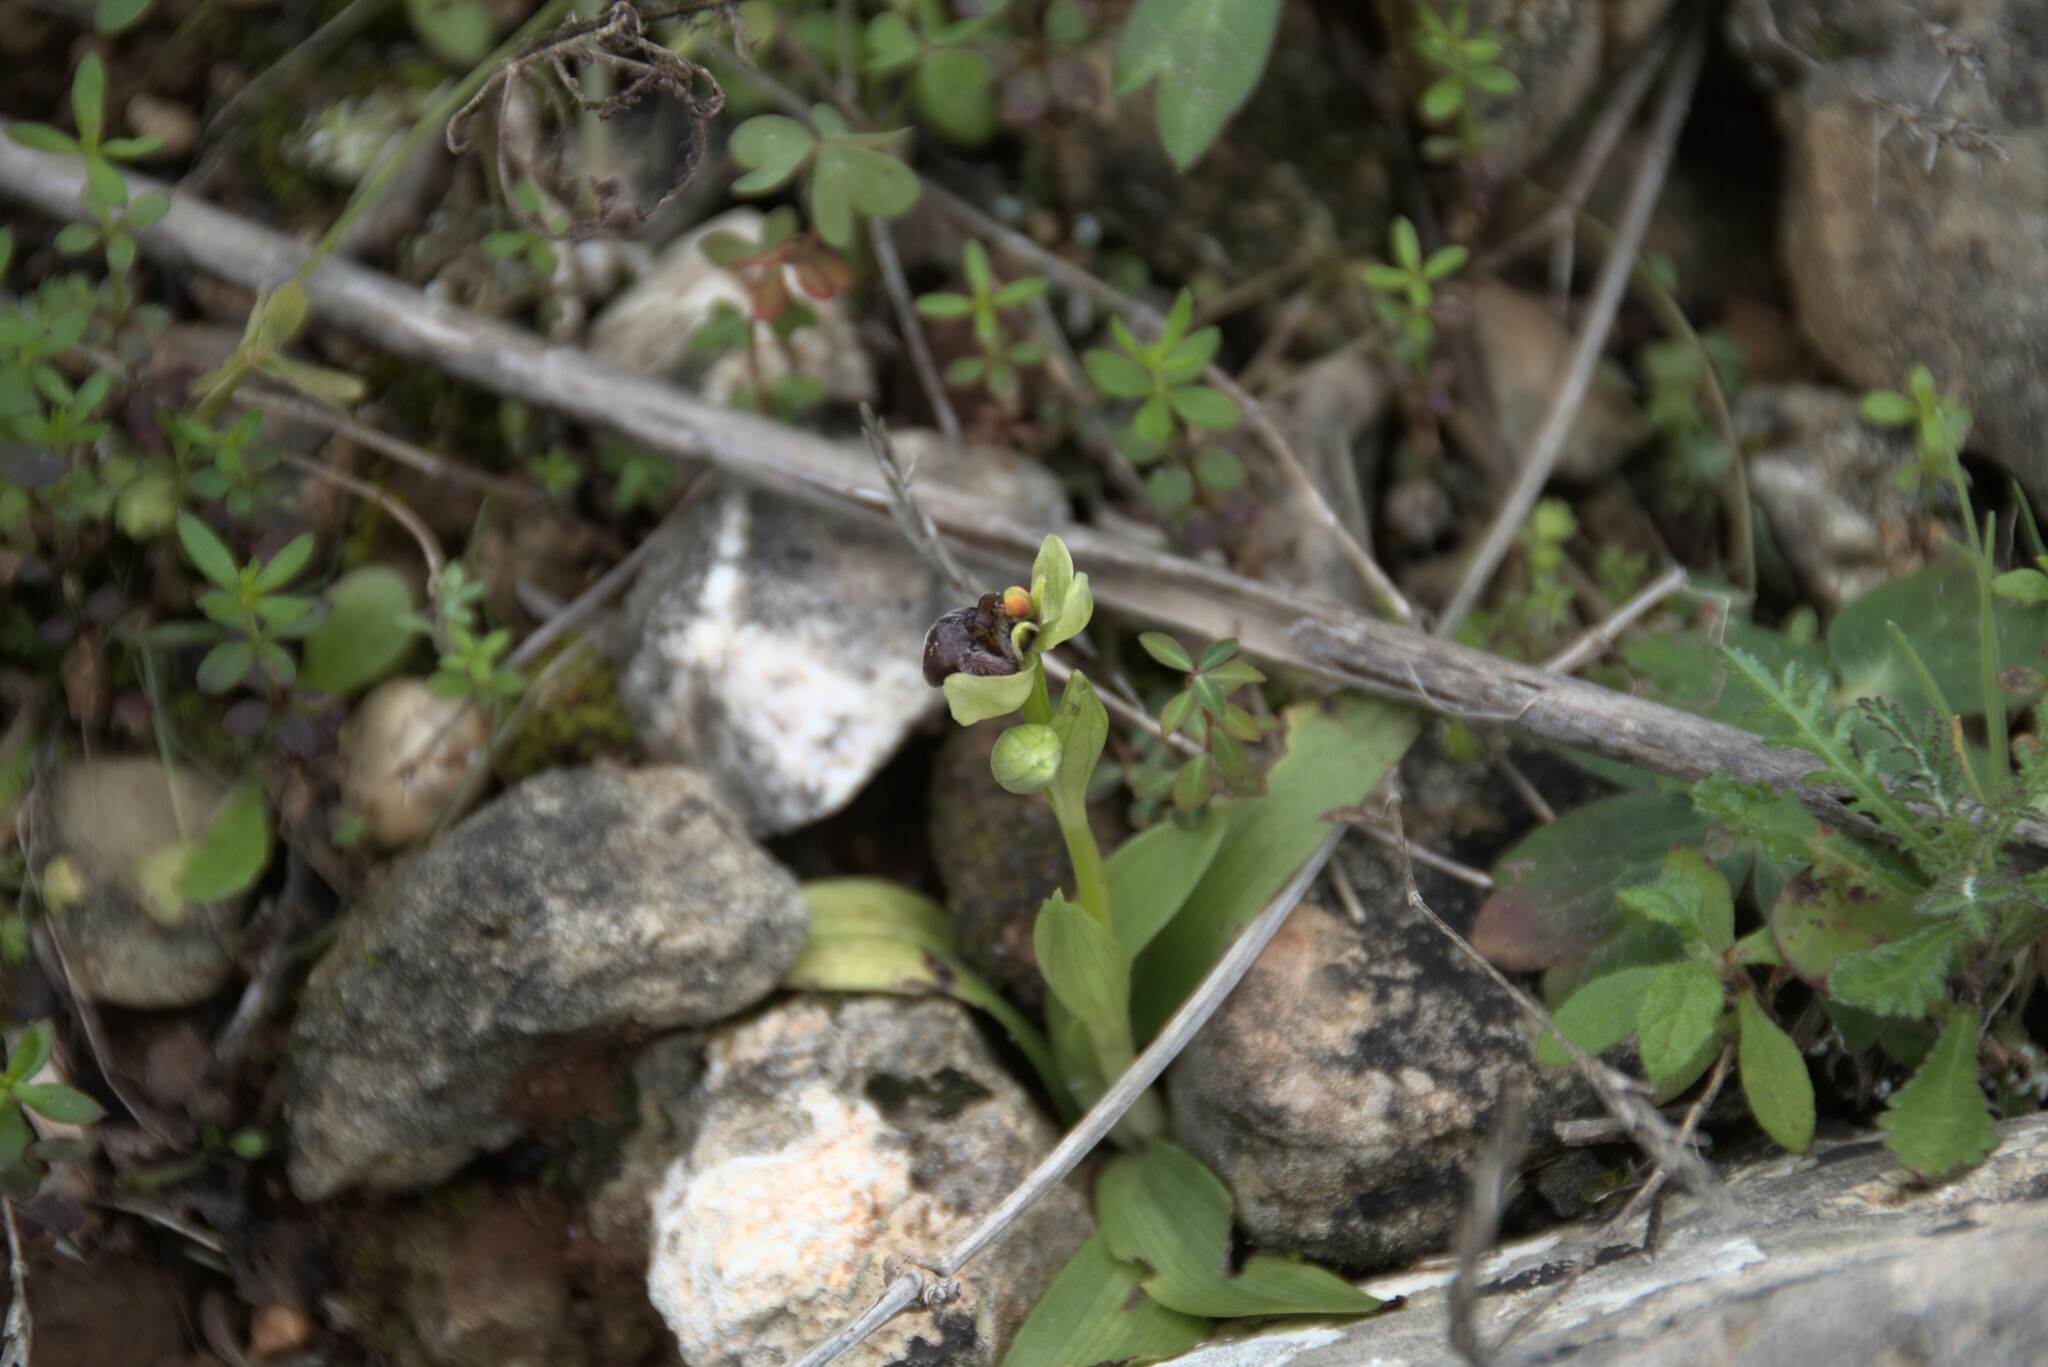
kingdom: Plantae
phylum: Tracheophyta
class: Liliopsida
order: Asparagales
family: Orchidaceae
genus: Ophrys
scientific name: Ophrys bombyliflora
